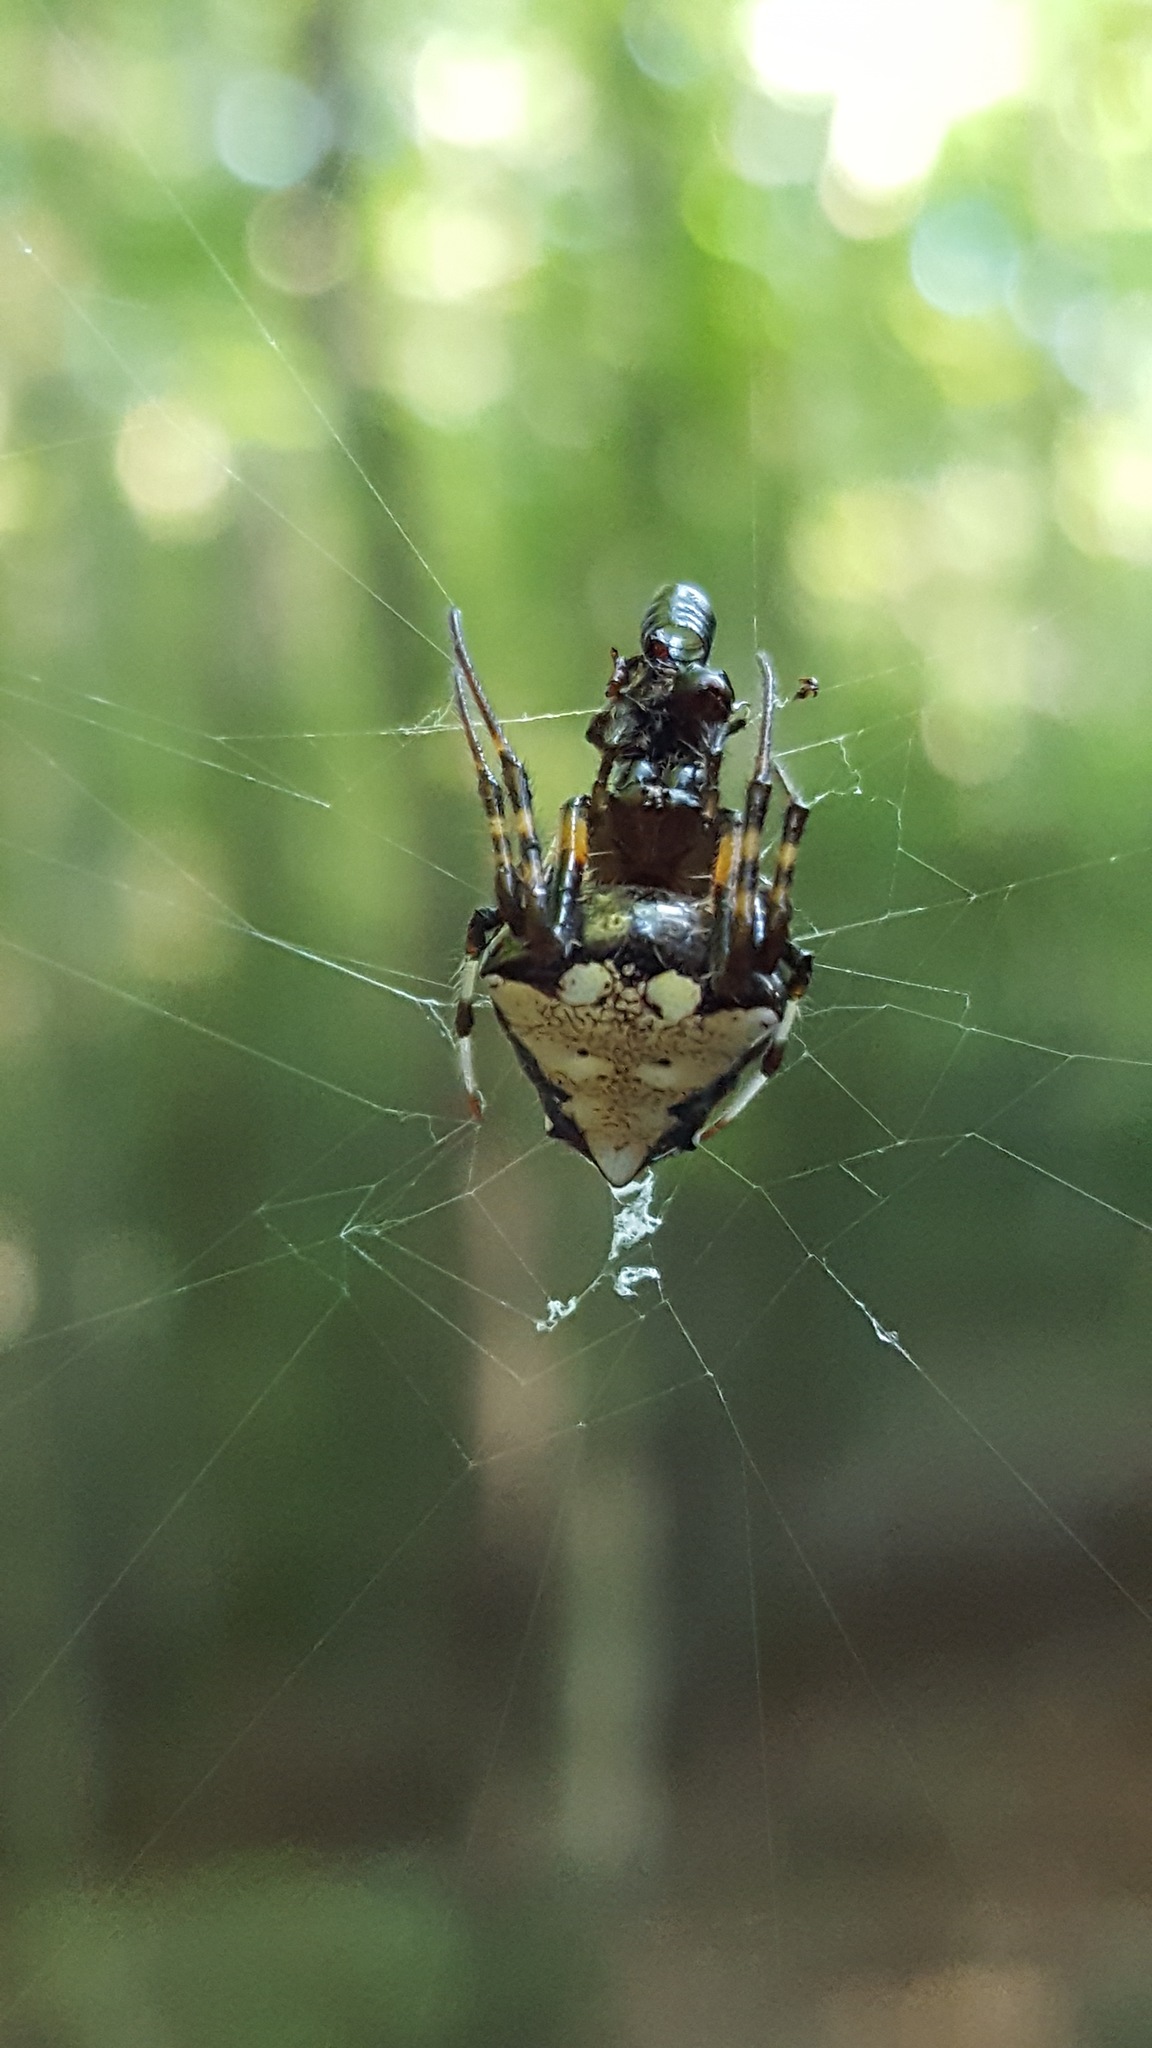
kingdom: Animalia
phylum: Arthropoda
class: Arachnida
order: Araneae
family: Araneidae
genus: Verrucosa
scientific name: Verrucosa arenata
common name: Orb weavers
